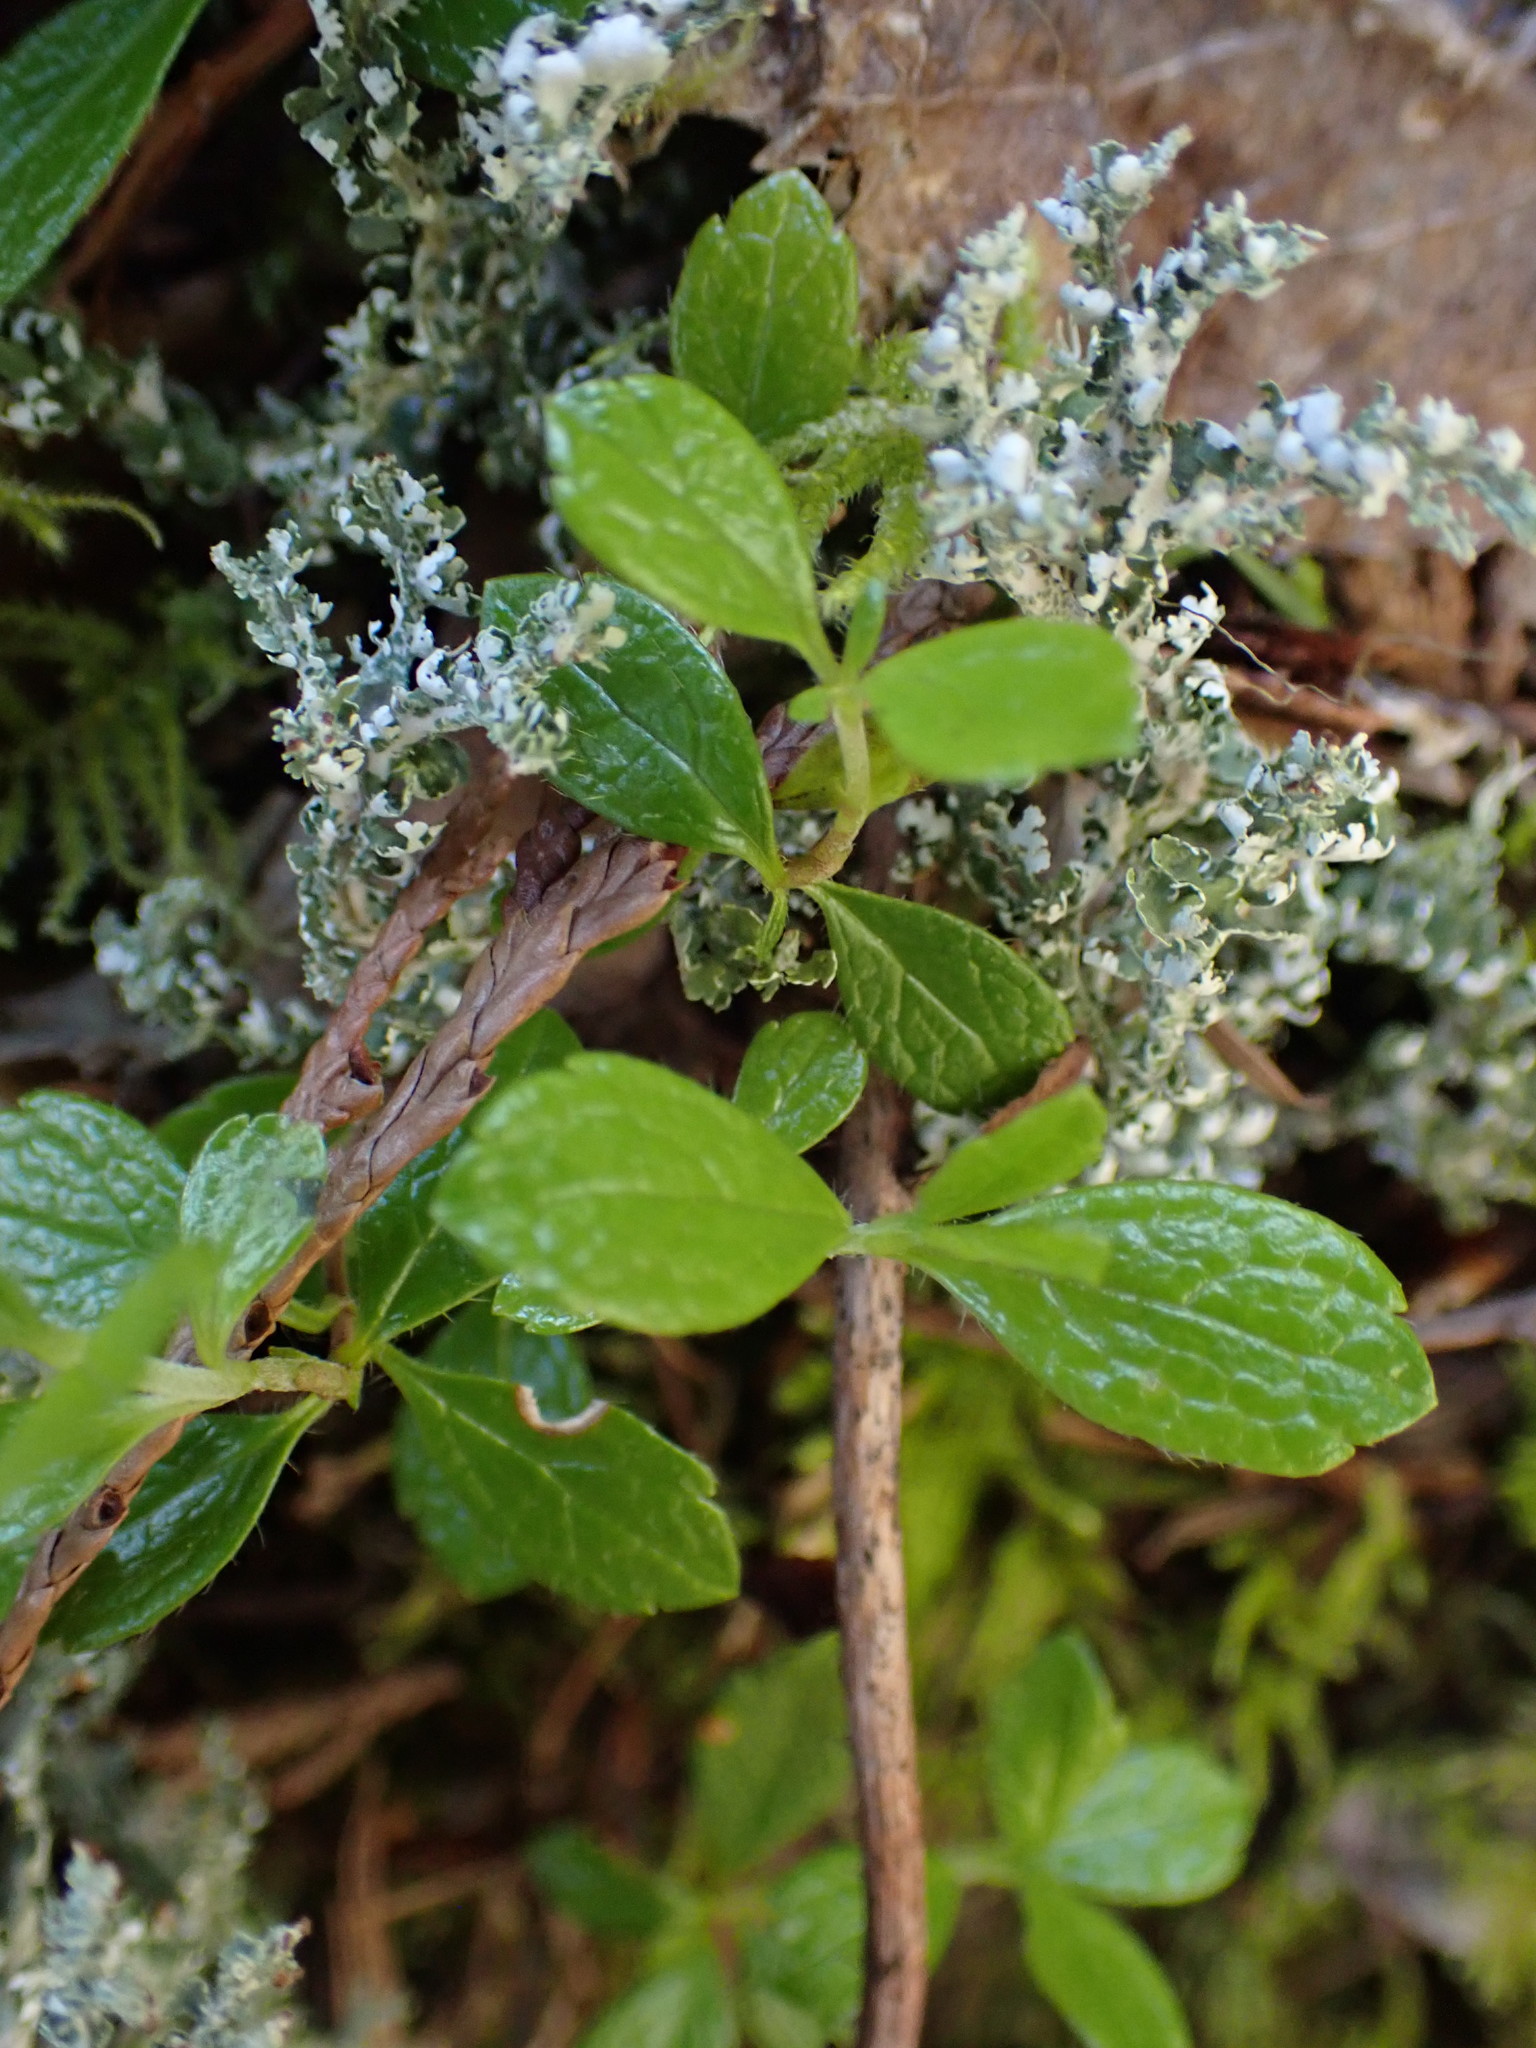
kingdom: Plantae
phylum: Tracheophyta
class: Magnoliopsida
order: Dipsacales
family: Caprifoliaceae
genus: Linnaea
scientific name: Linnaea borealis
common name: Twinflower
